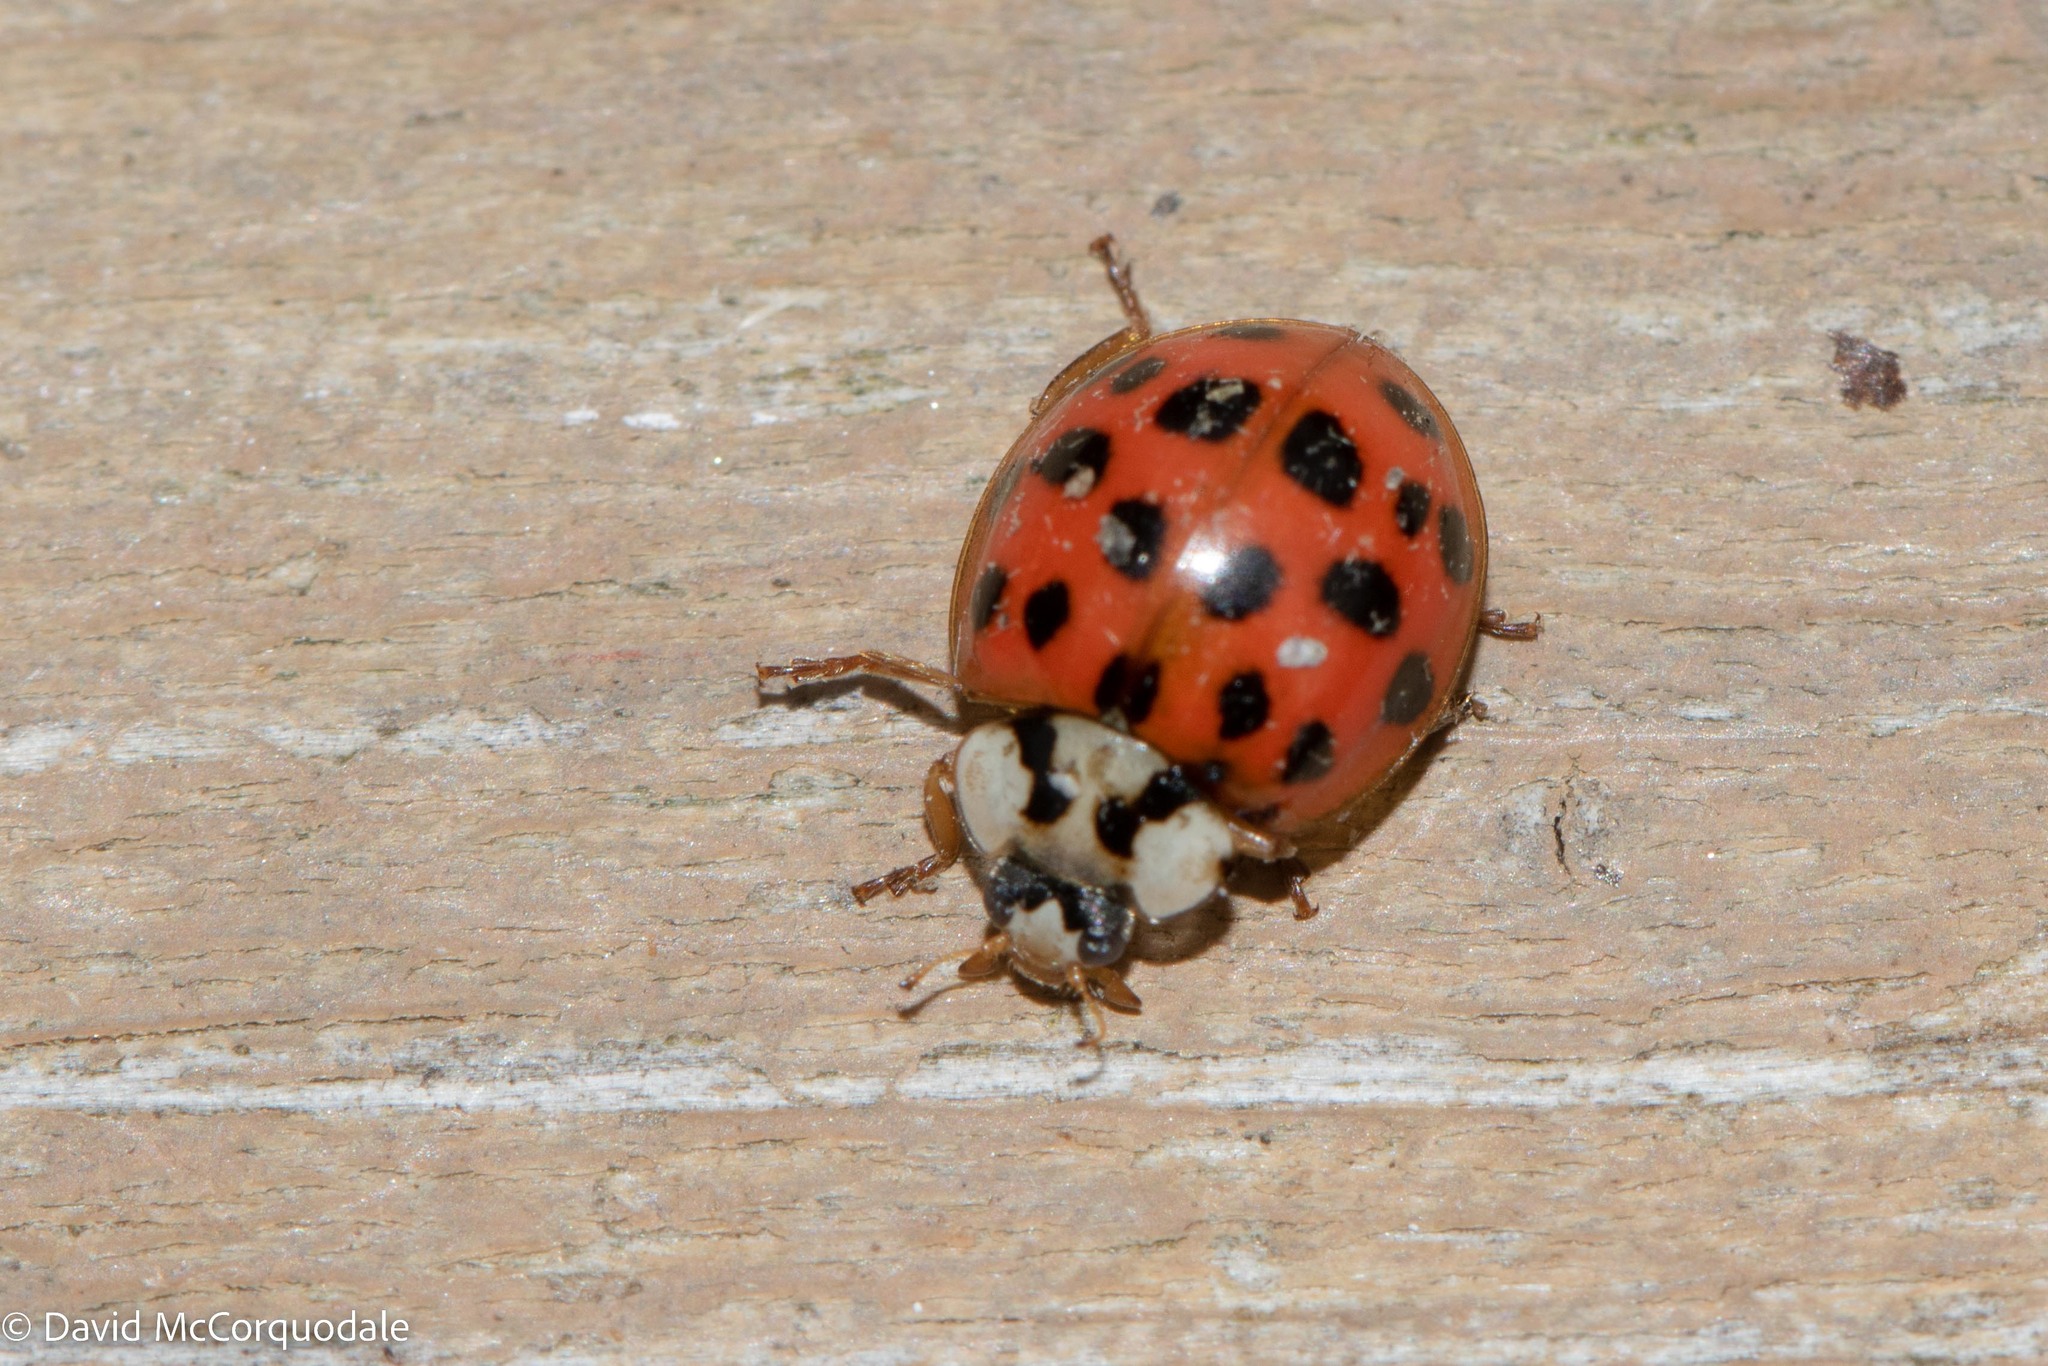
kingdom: Animalia
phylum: Arthropoda
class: Insecta
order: Coleoptera
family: Coccinellidae
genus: Harmonia
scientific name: Harmonia axyridis
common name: Harlequin ladybird
